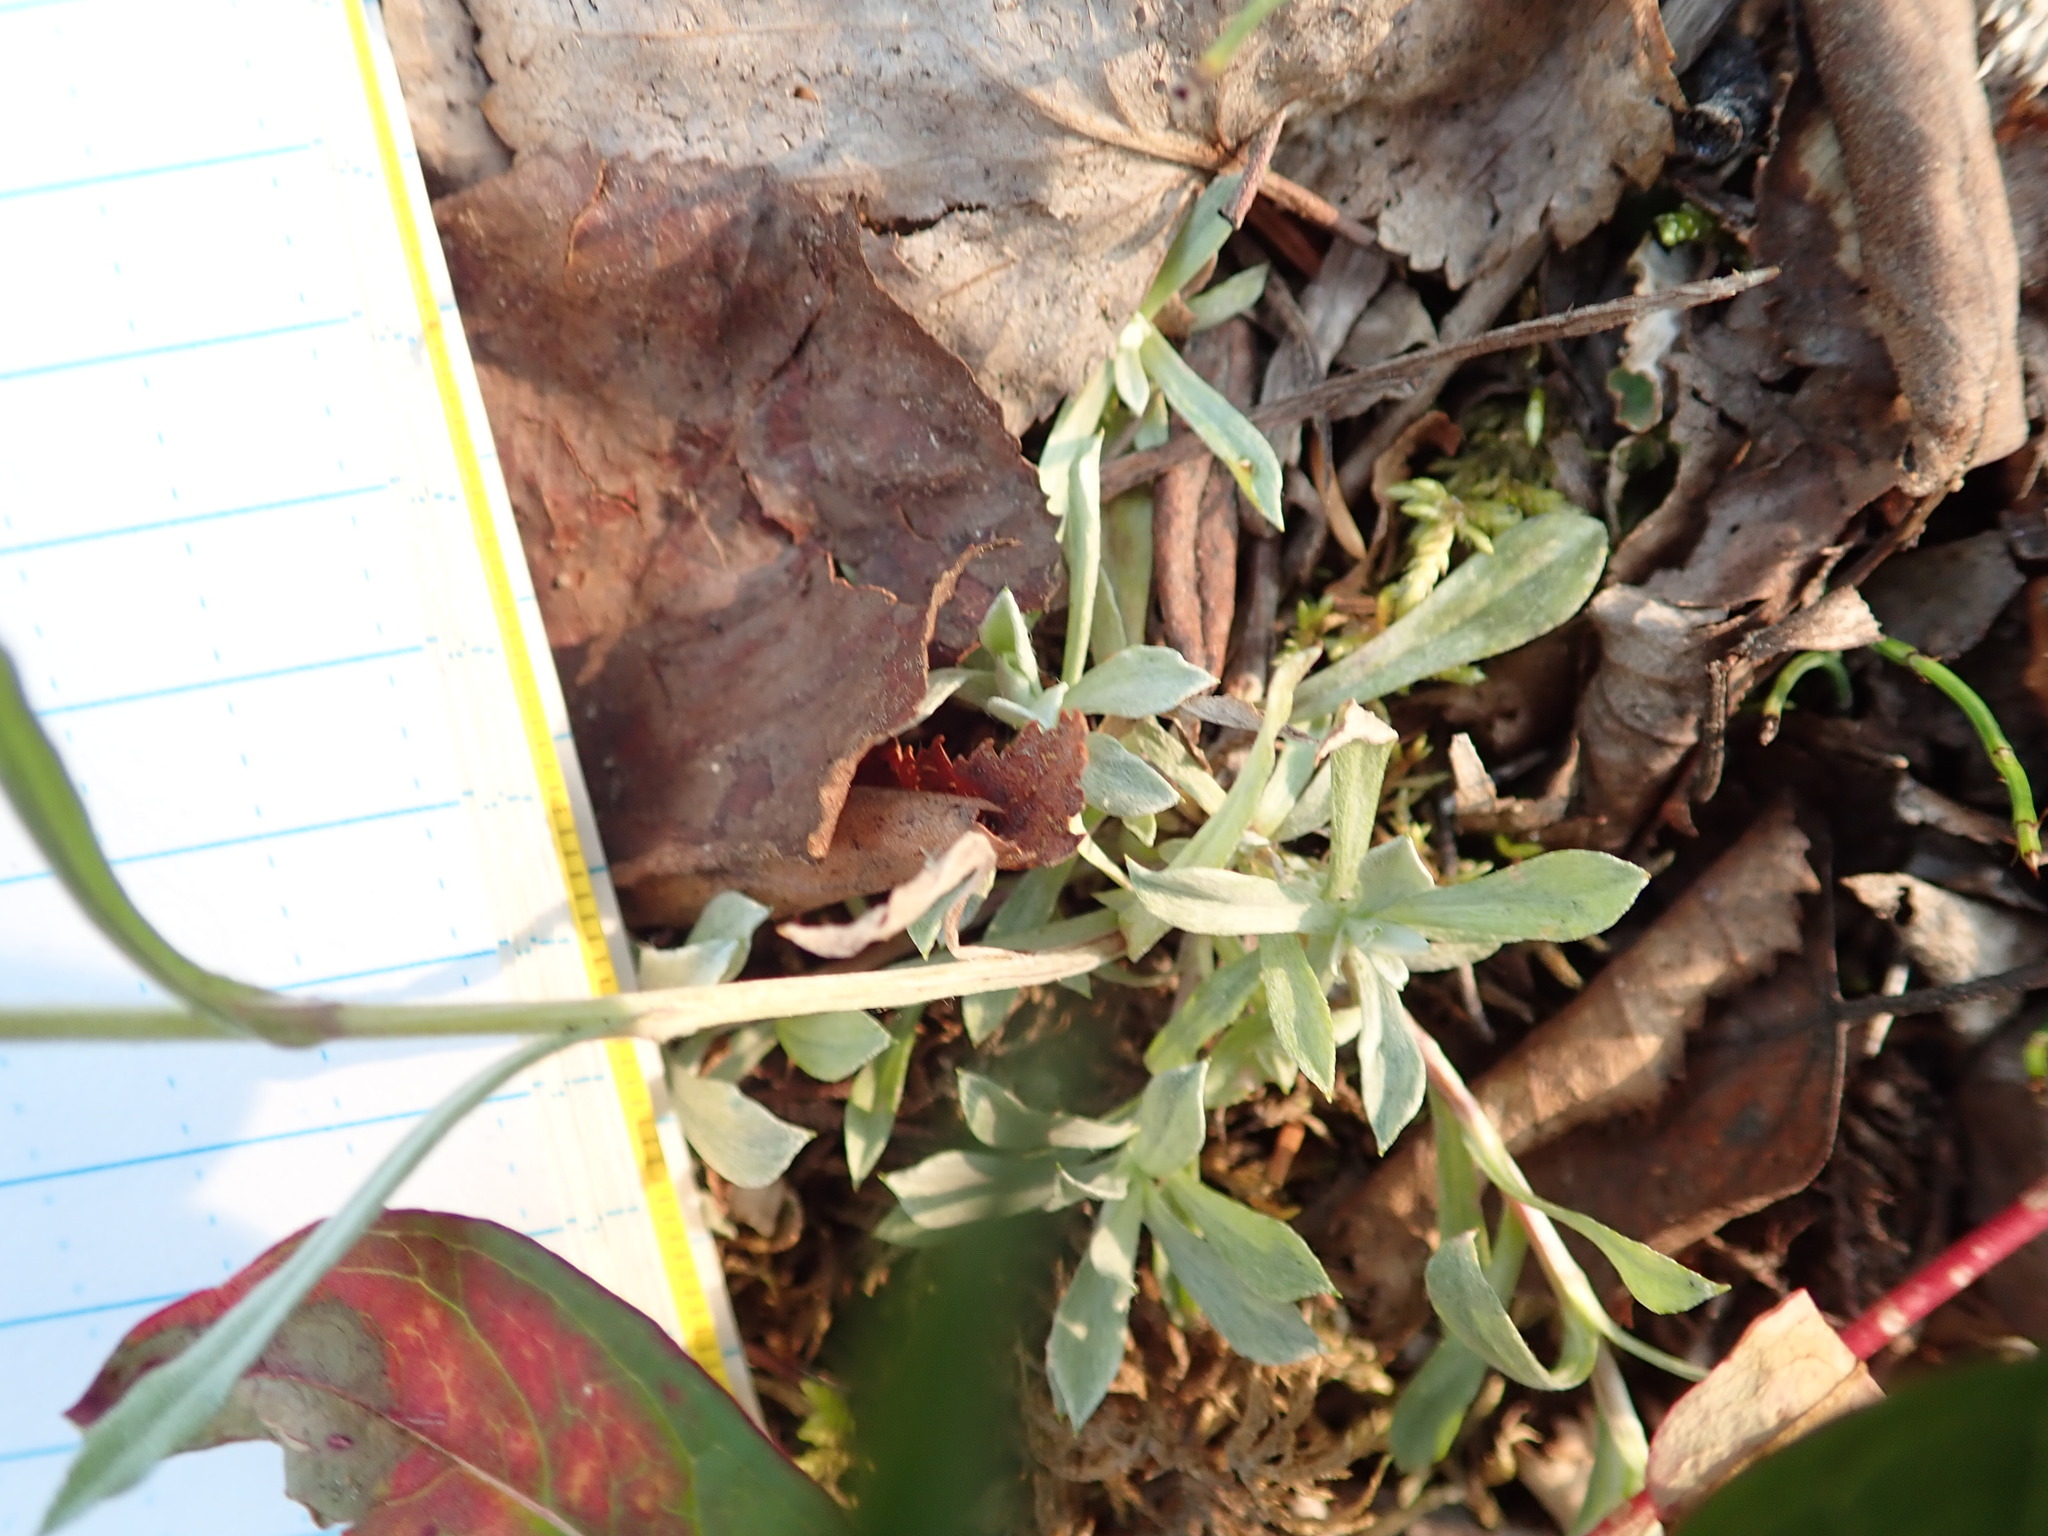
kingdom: Plantae
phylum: Tracheophyta
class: Magnoliopsida
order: Asterales
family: Asteraceae
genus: Antennaria
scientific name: Antennaria rosea
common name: Rosy pussytoes
